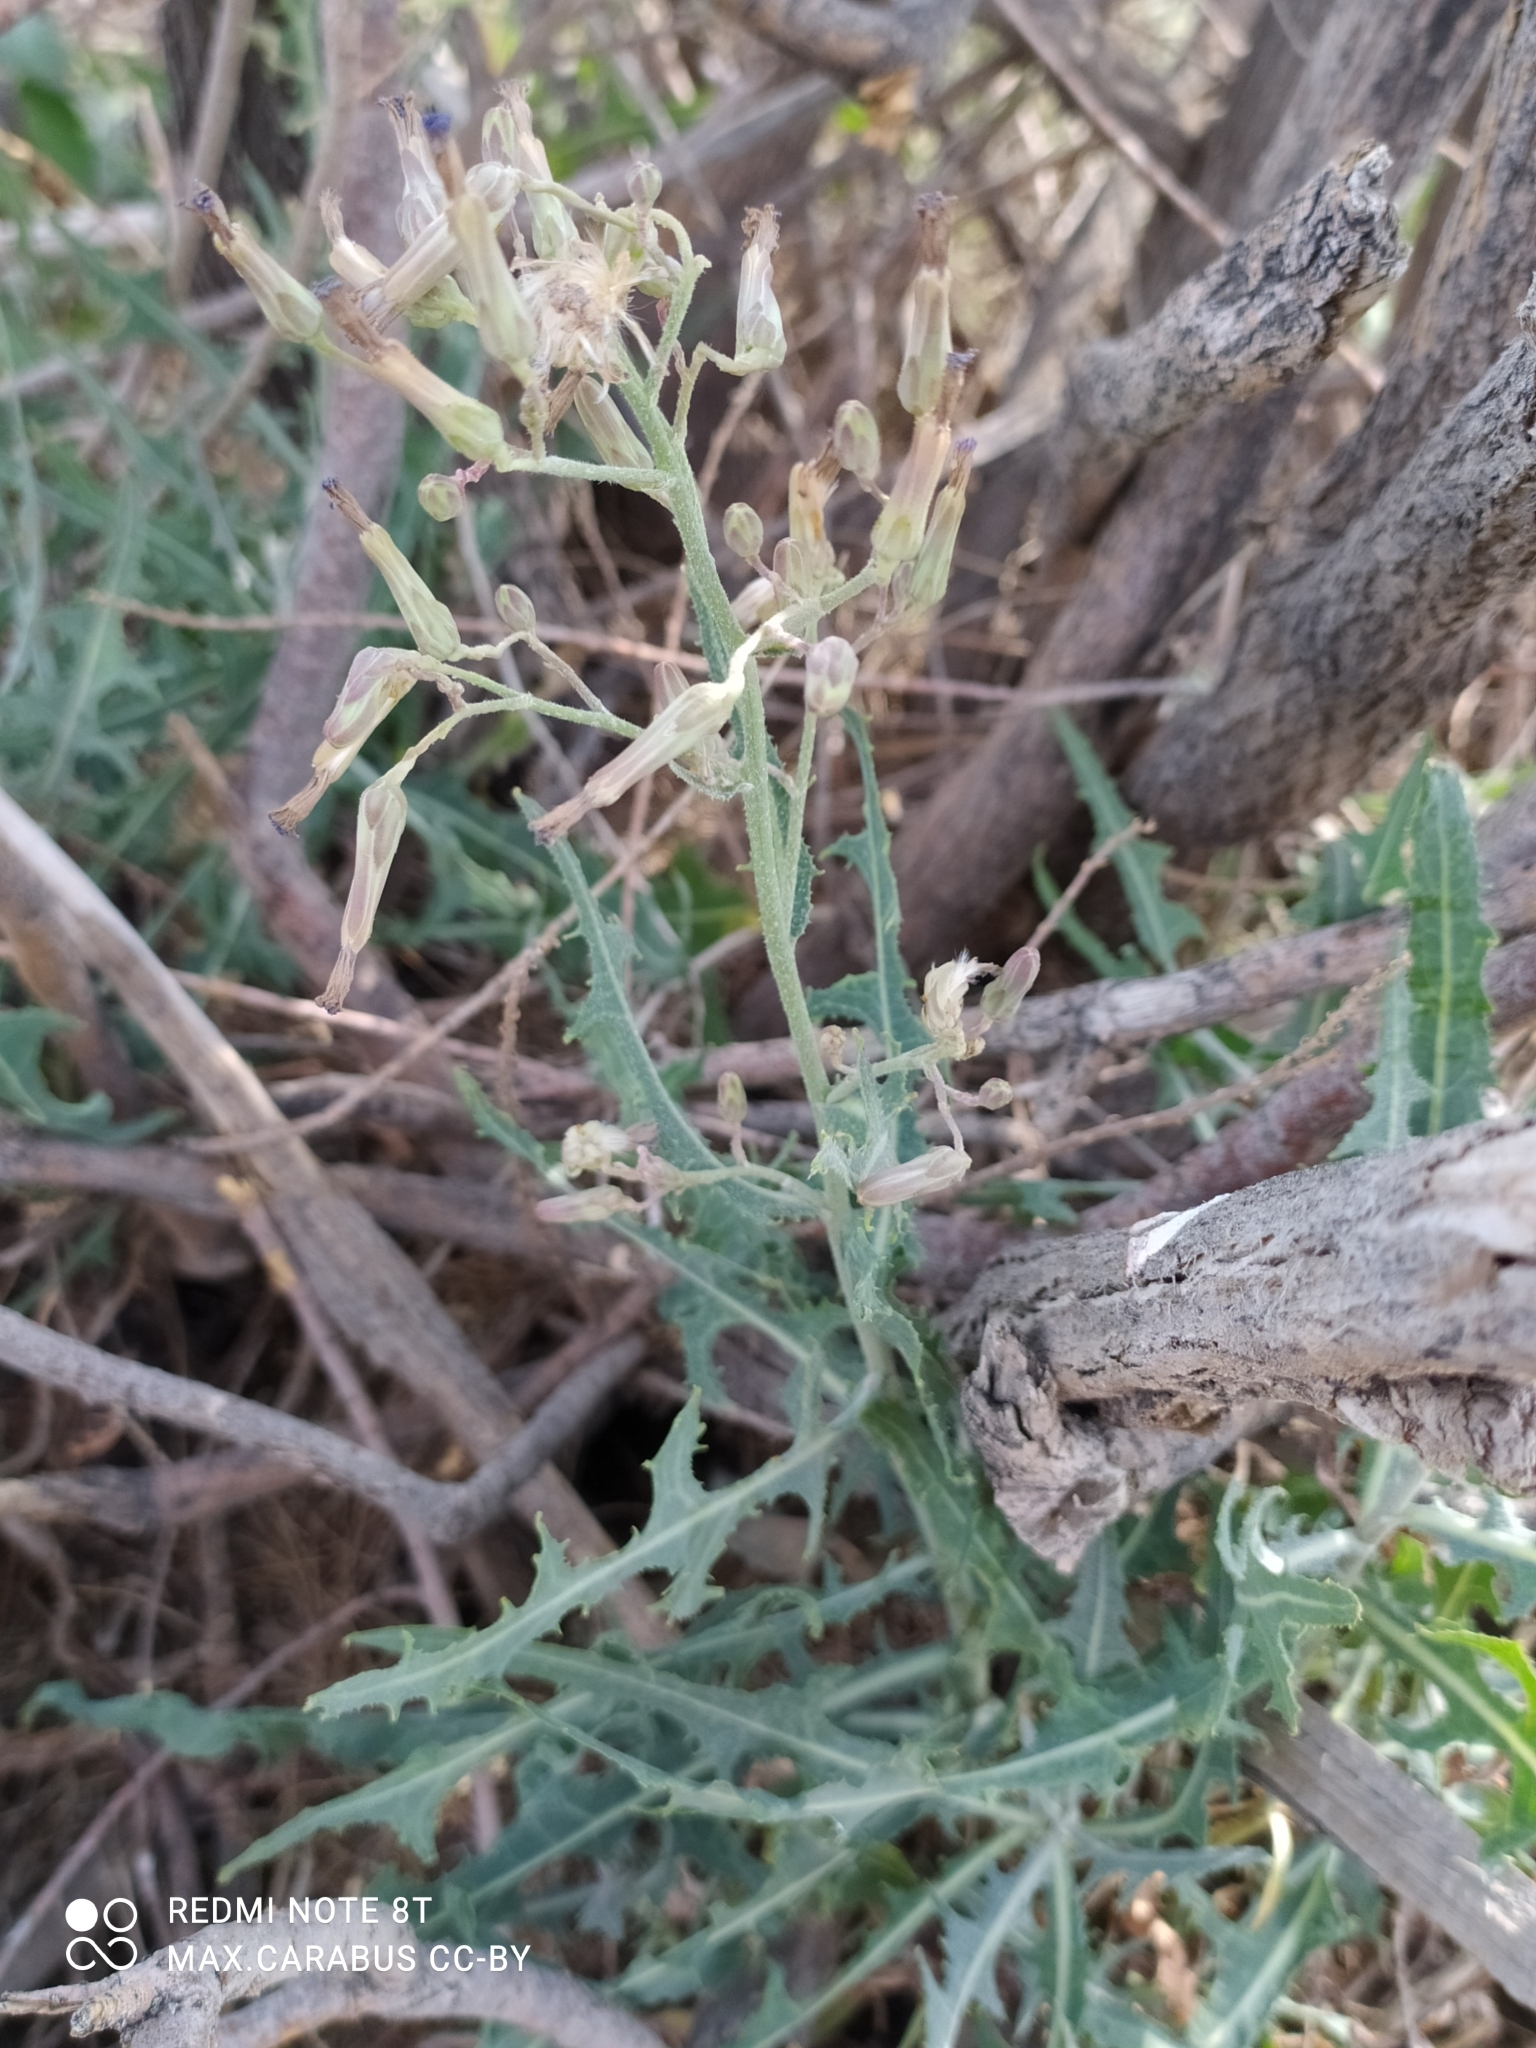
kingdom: Plantae
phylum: Tracheophyta
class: Magnoliopsida
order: Asterales
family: Asteraceae
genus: Lactuca
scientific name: Lactuca tatarica
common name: Blue lettuce
